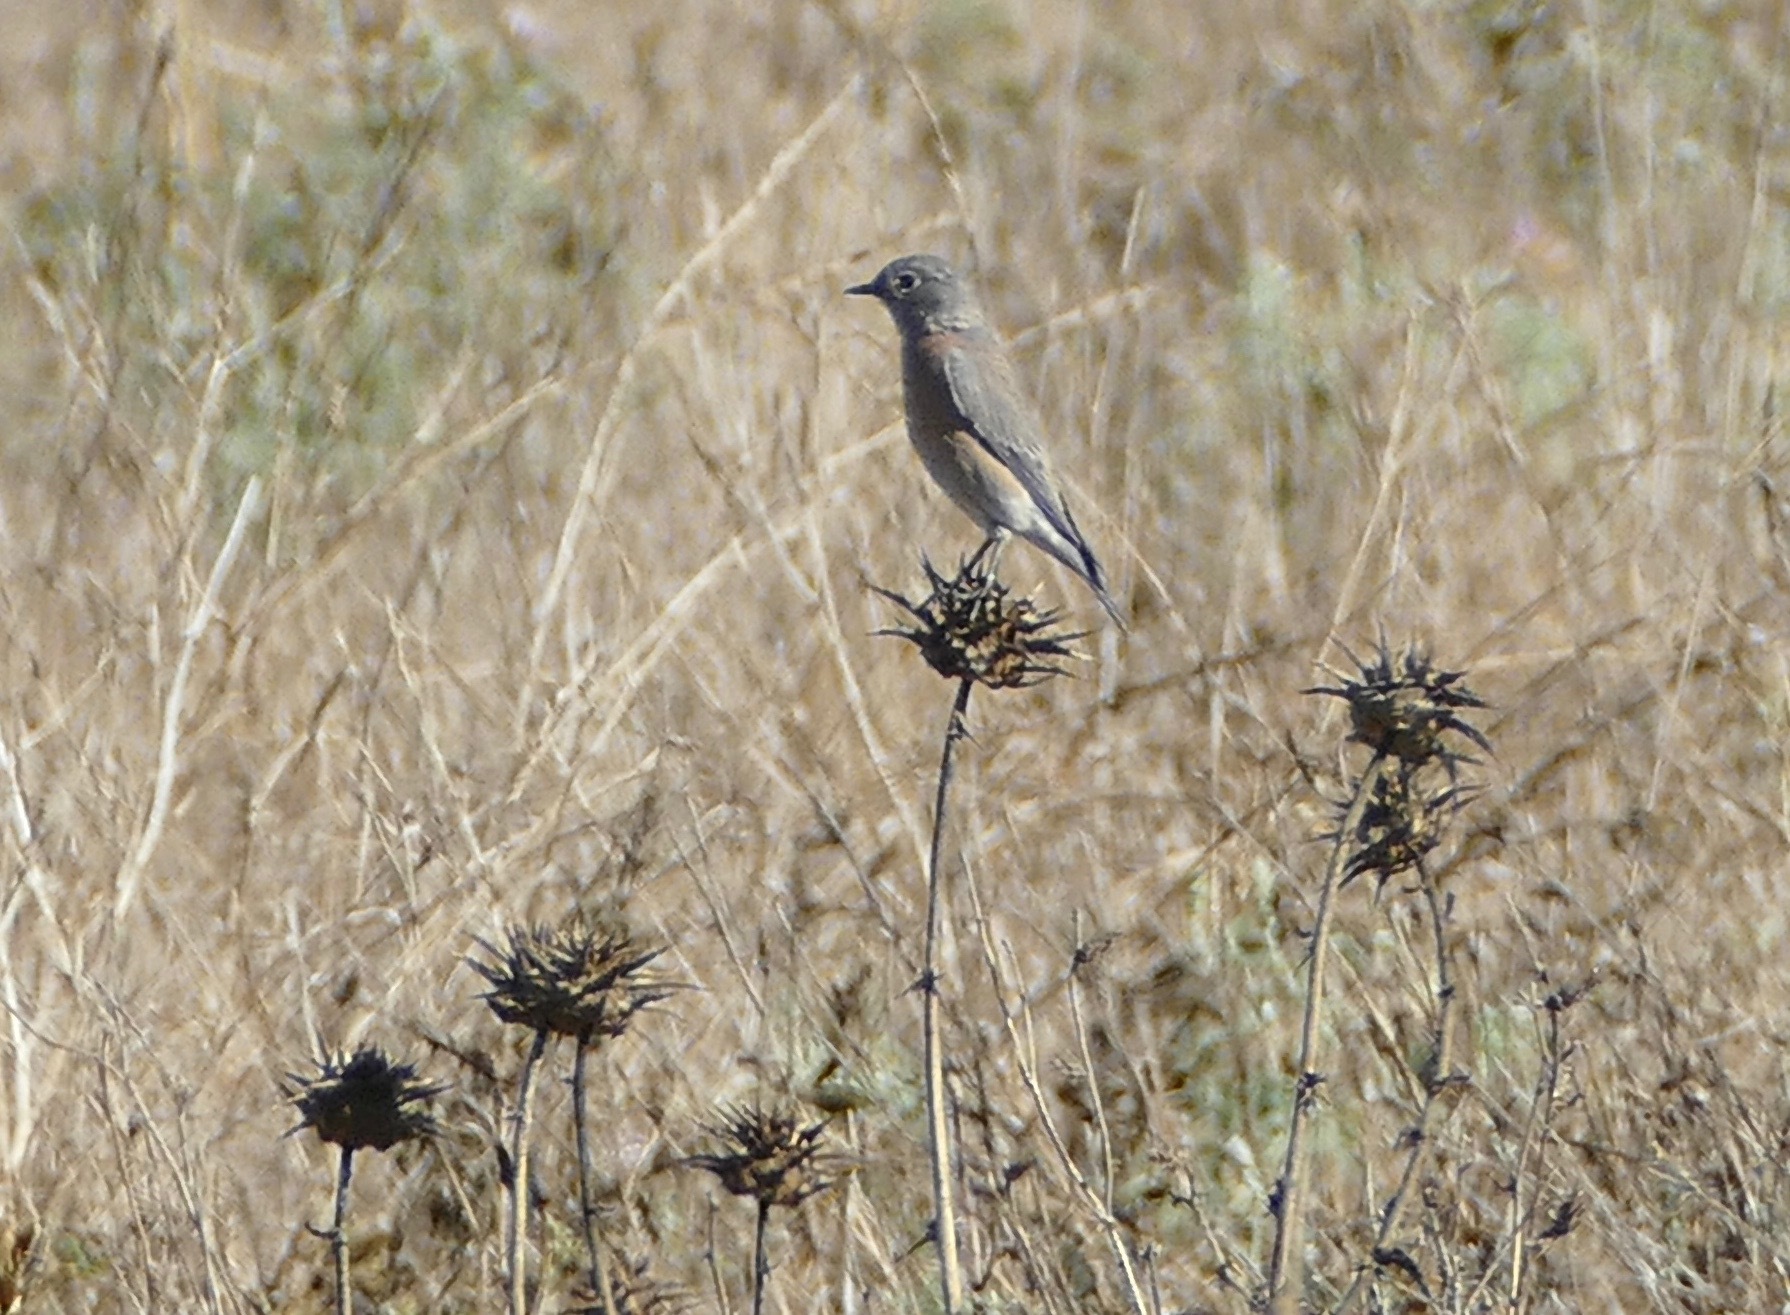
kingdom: Animalia
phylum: Chordata
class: Aves
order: Passeriformes
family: Turdidae
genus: Sialia
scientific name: Sialia mexicana
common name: Western bluebird
